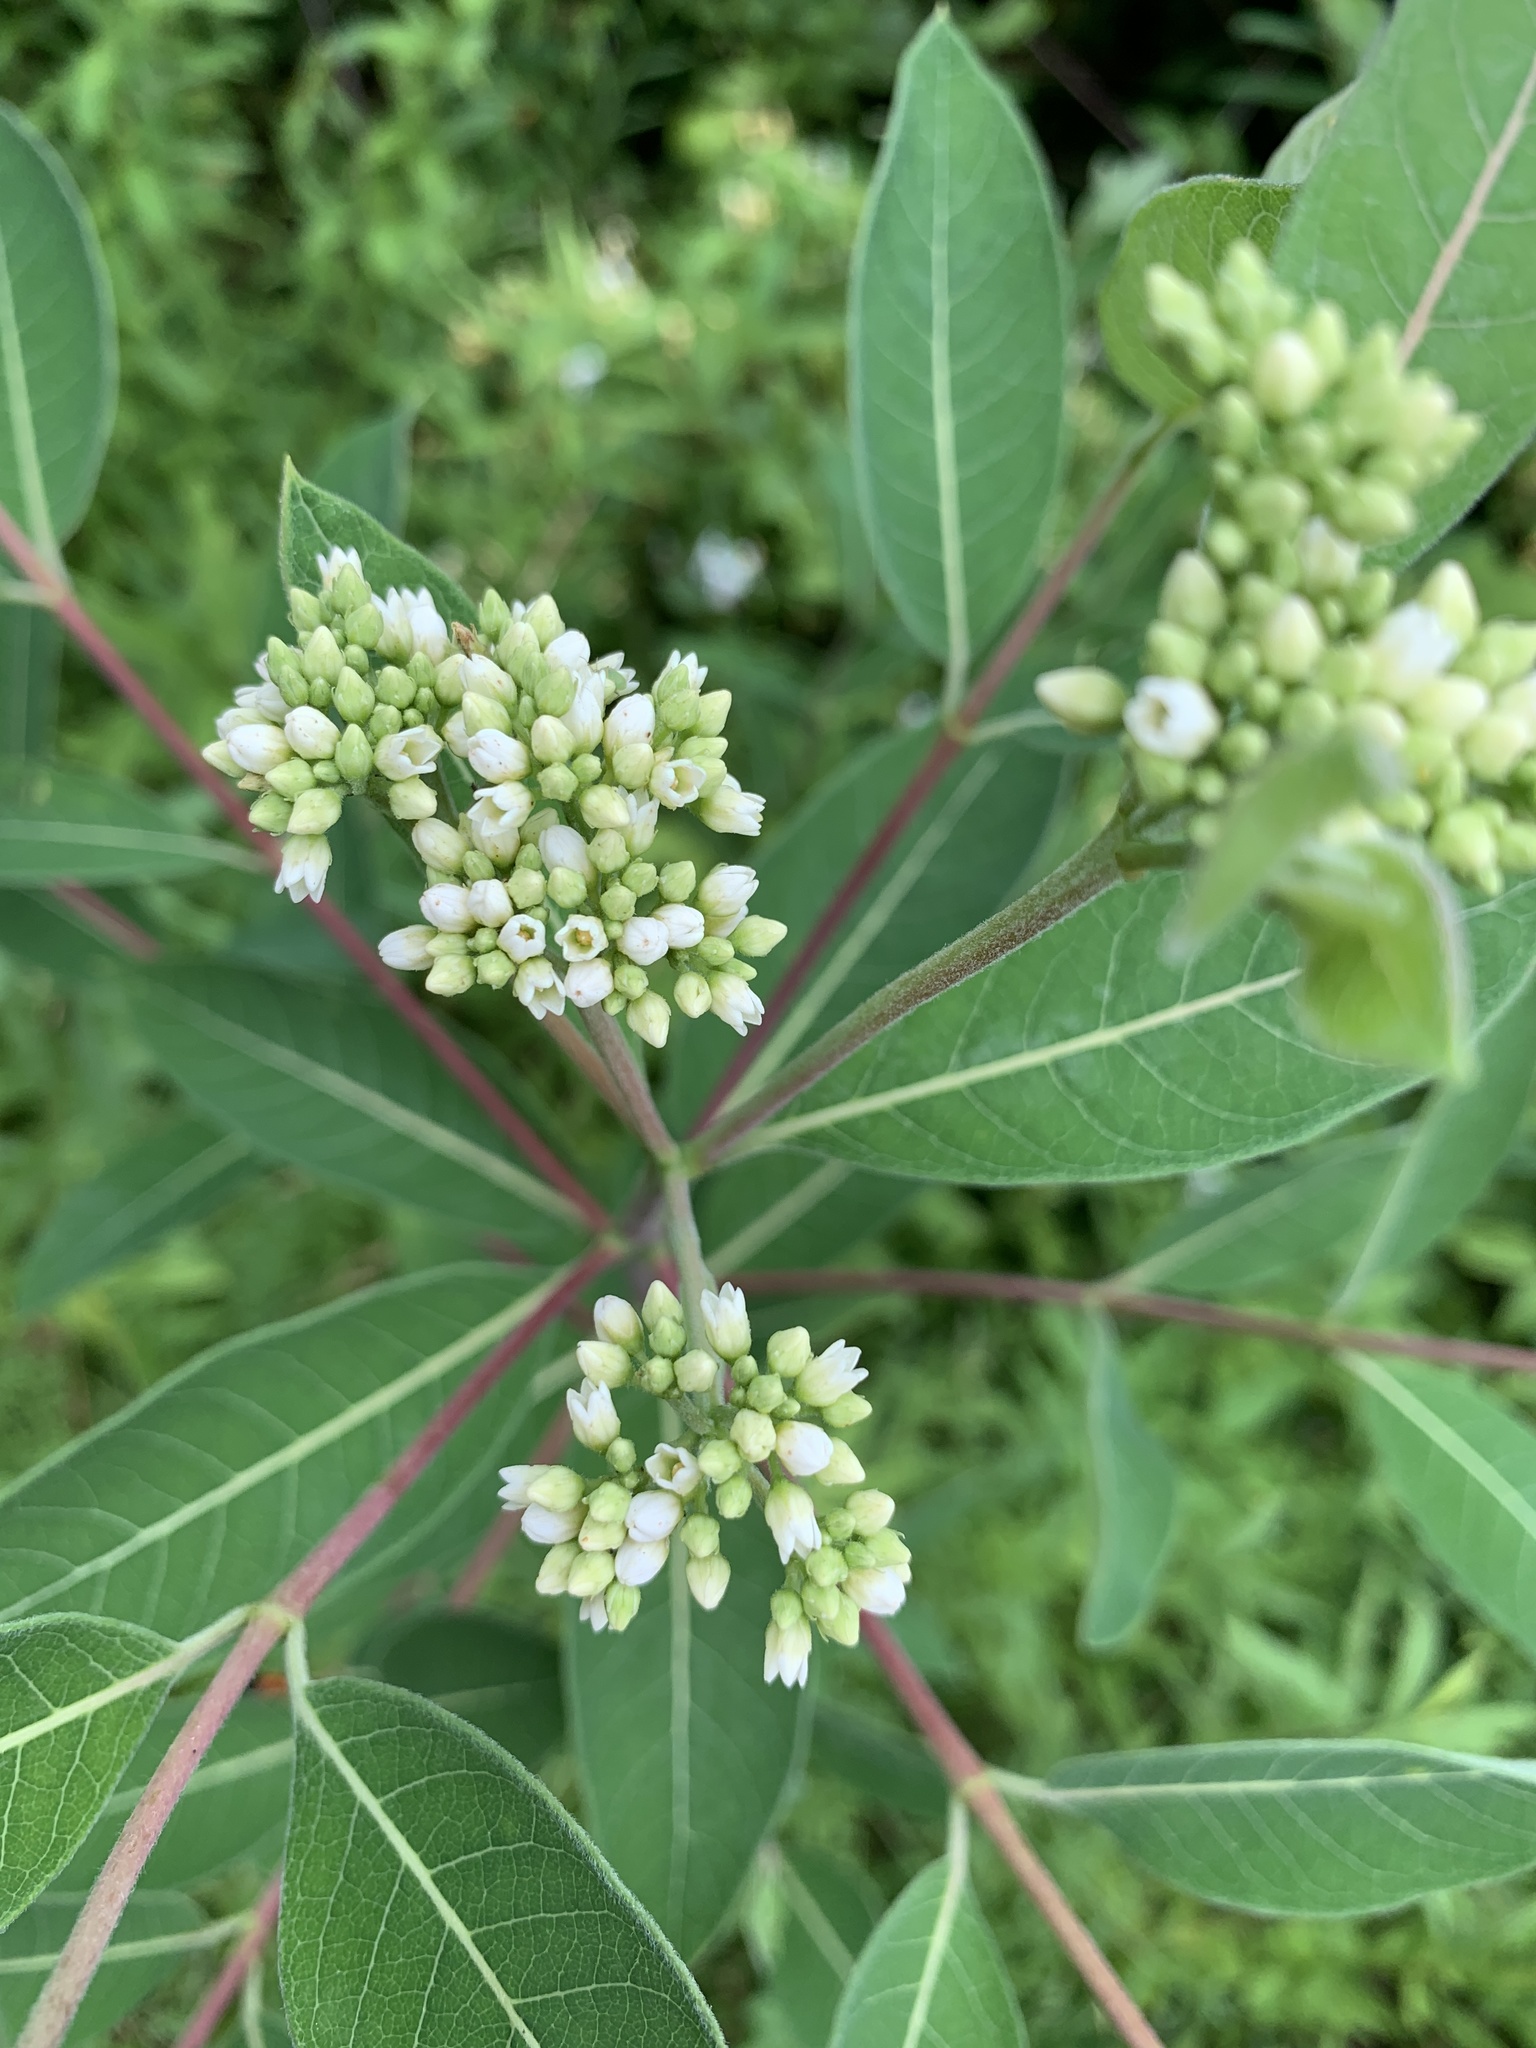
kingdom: Plantae
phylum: Tracheophyta
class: Magnoliopsida
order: Gentianales
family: Apocynaceae
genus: Apocynum
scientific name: Apocynum cannabinum
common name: Hemp dogbane
